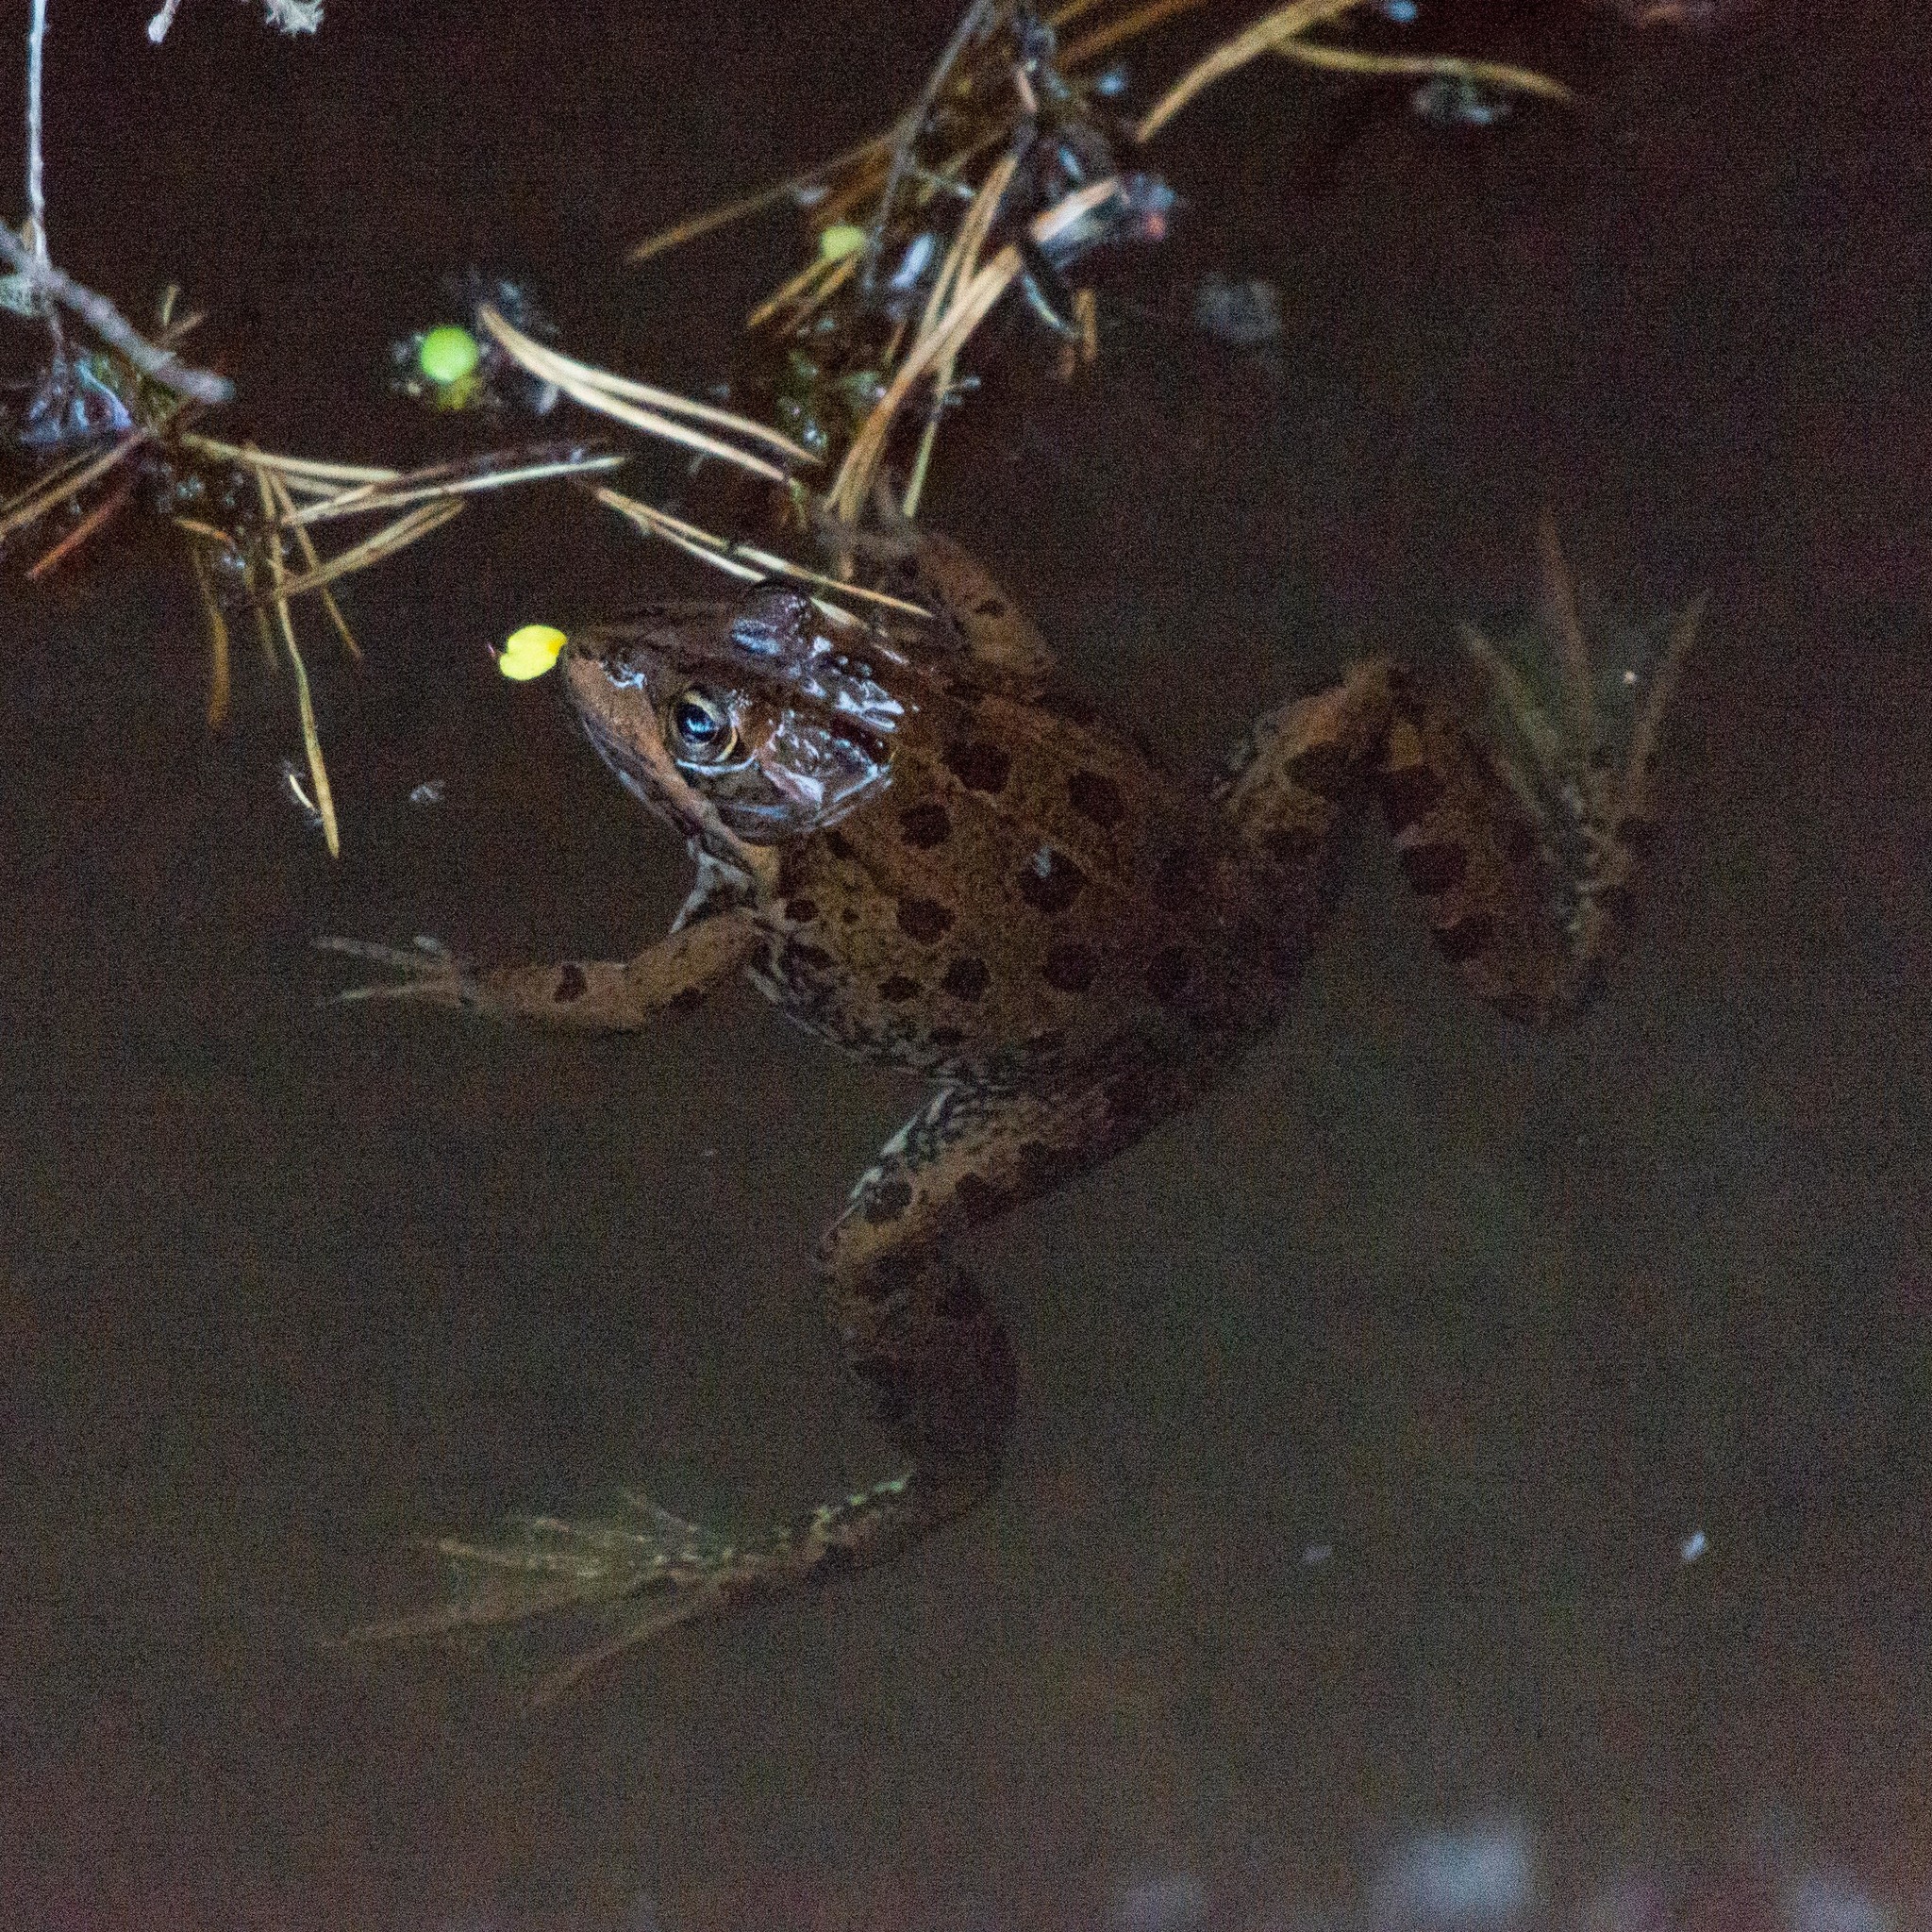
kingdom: Animalia
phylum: Chordata
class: Amphibia
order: Anura
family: Ranidae
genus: Pelophylax
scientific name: Pelophylax perezi
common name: Perez's frog
